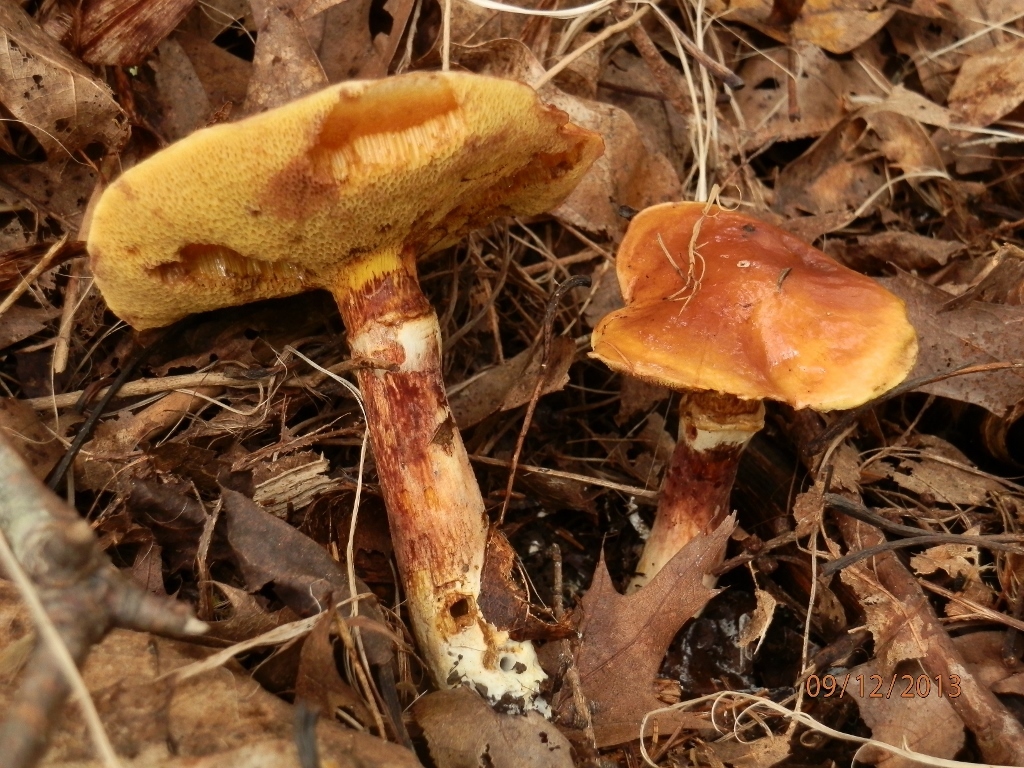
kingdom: Fungi
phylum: Basidiomycota
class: Agaricomycetes
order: Boletales
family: Suillaceae
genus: Suillus
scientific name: Suillus grevillei
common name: Larch bolete
